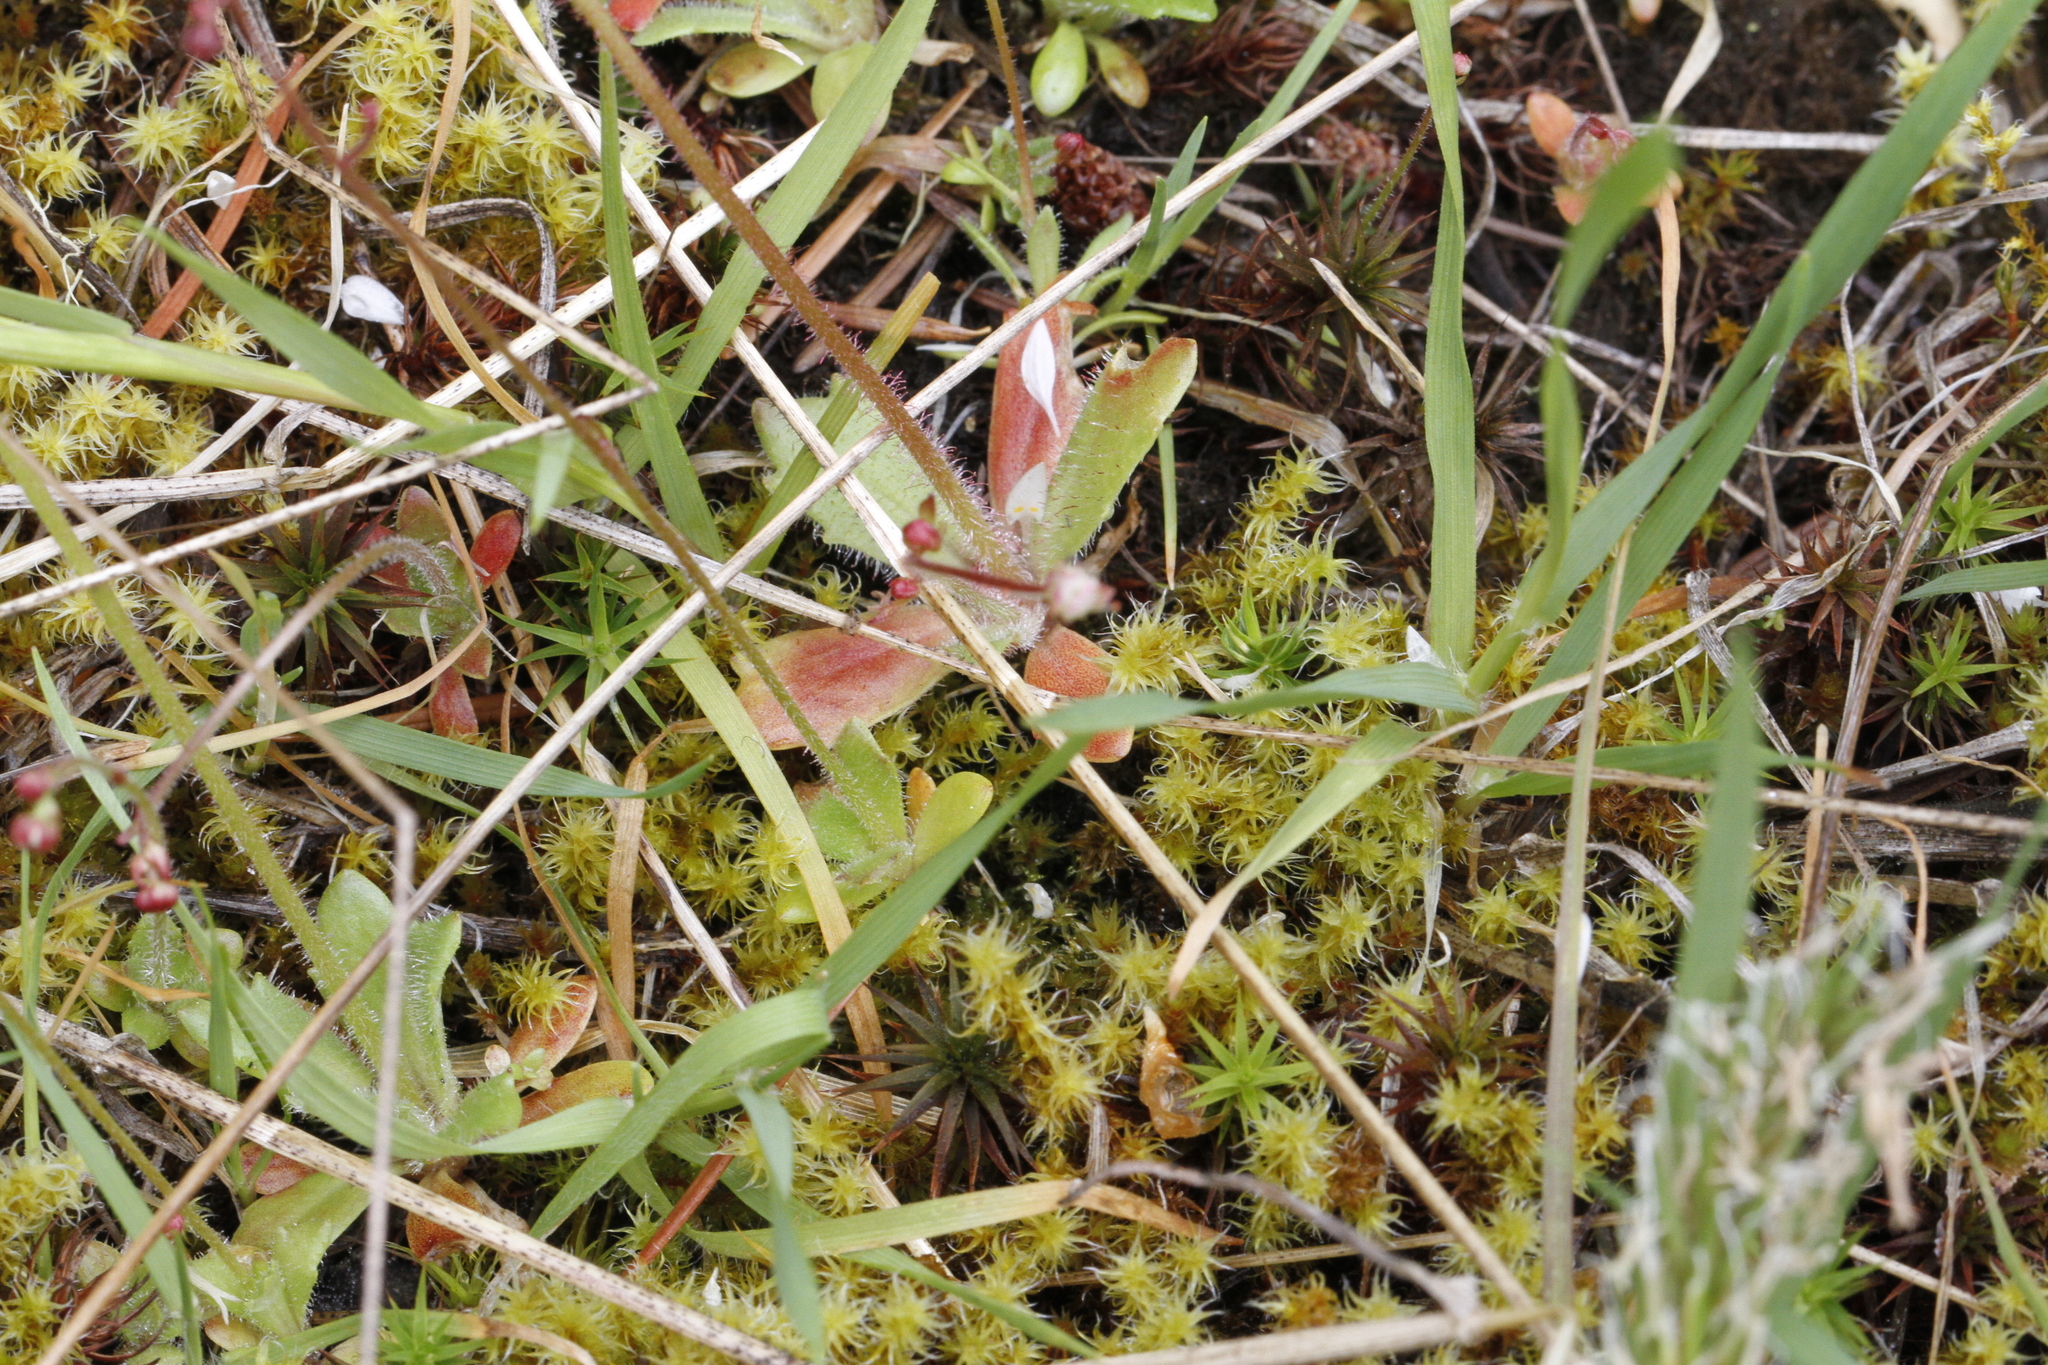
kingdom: Plantae
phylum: Tracheophyta
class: Magnoliopsida
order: Saxifragales
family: Saxifragaceae
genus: Micranthes
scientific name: Micranthes ferruginea
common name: Rusty saxifrage
